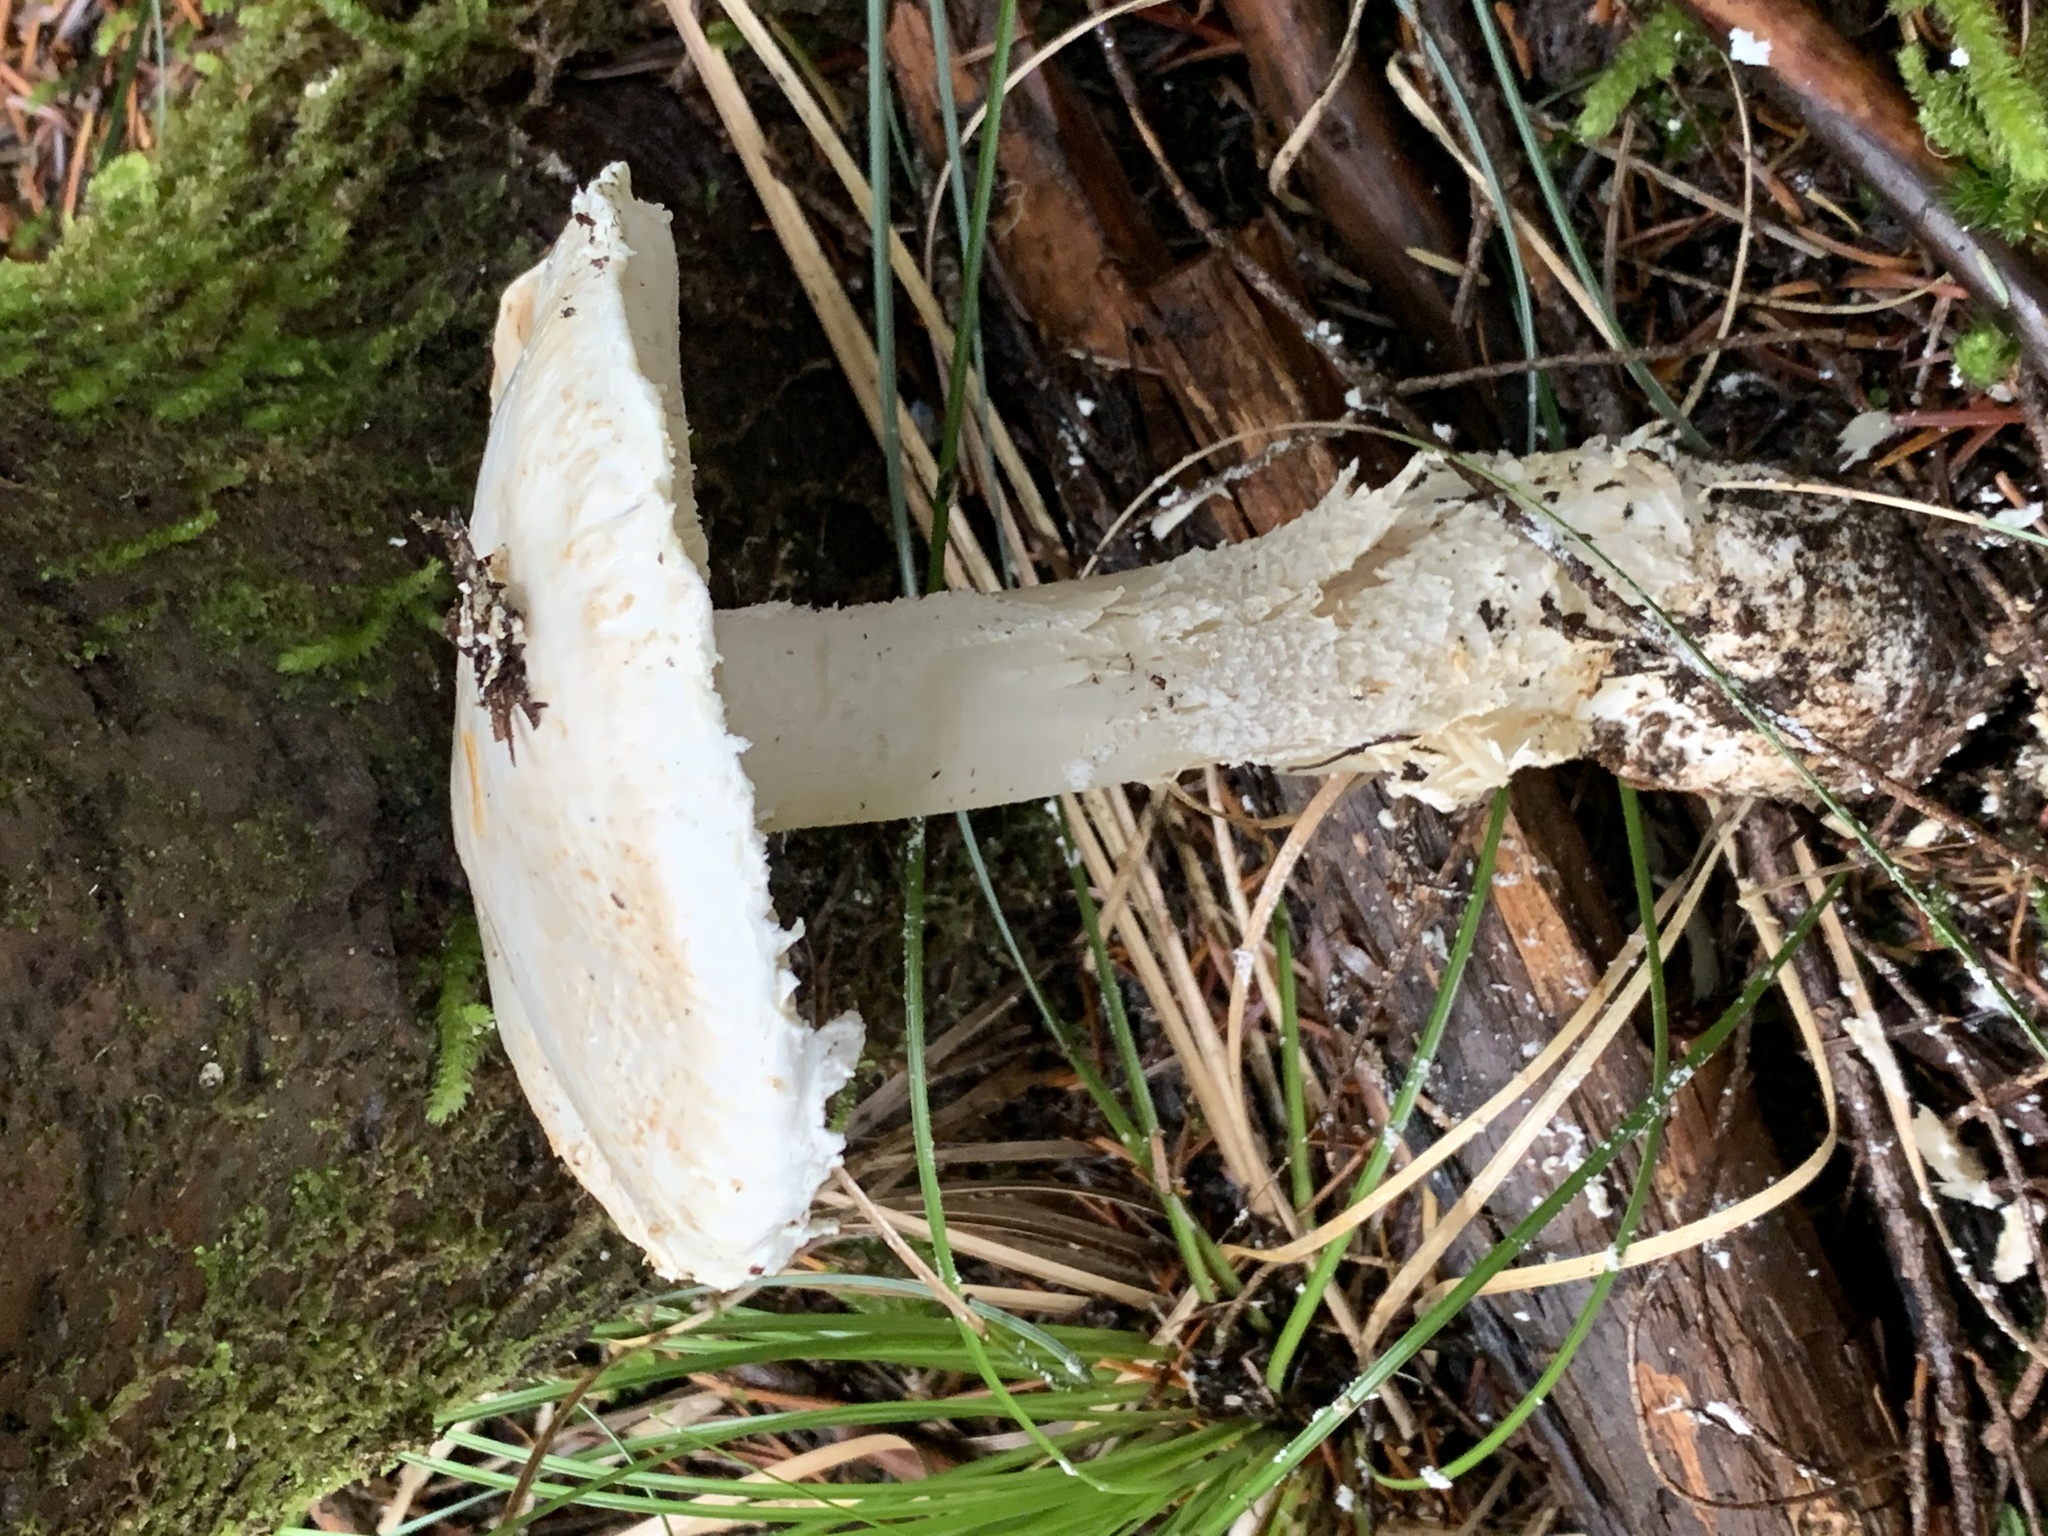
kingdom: Fungi
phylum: Basidiomycota
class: Agaricomycetes
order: Agaricales
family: Amanitaceae
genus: Amanita
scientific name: Amanita smithiana
